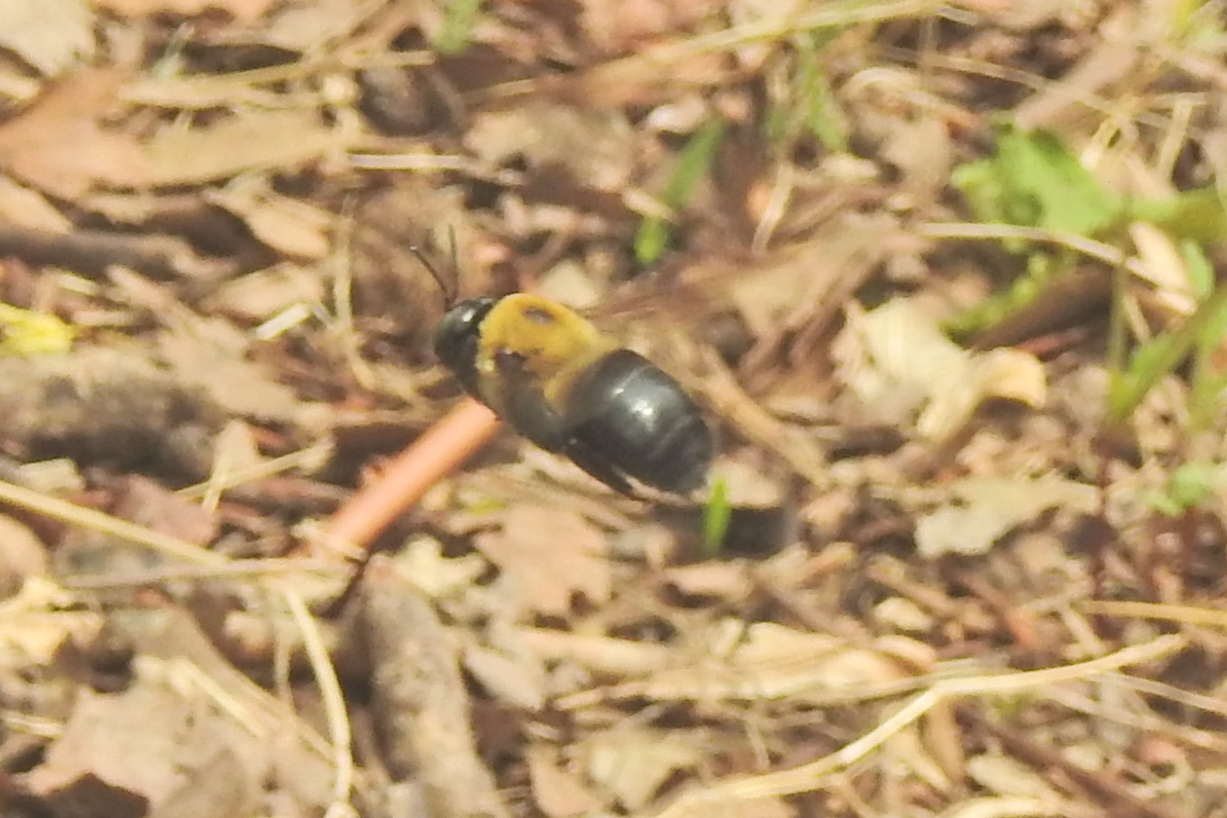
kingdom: Animalia
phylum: Arthropoda
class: Insecta
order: Hymenoptera
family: Apidae
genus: Xylocopa
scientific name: Xylocopa virginica
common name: Carpenter bee
